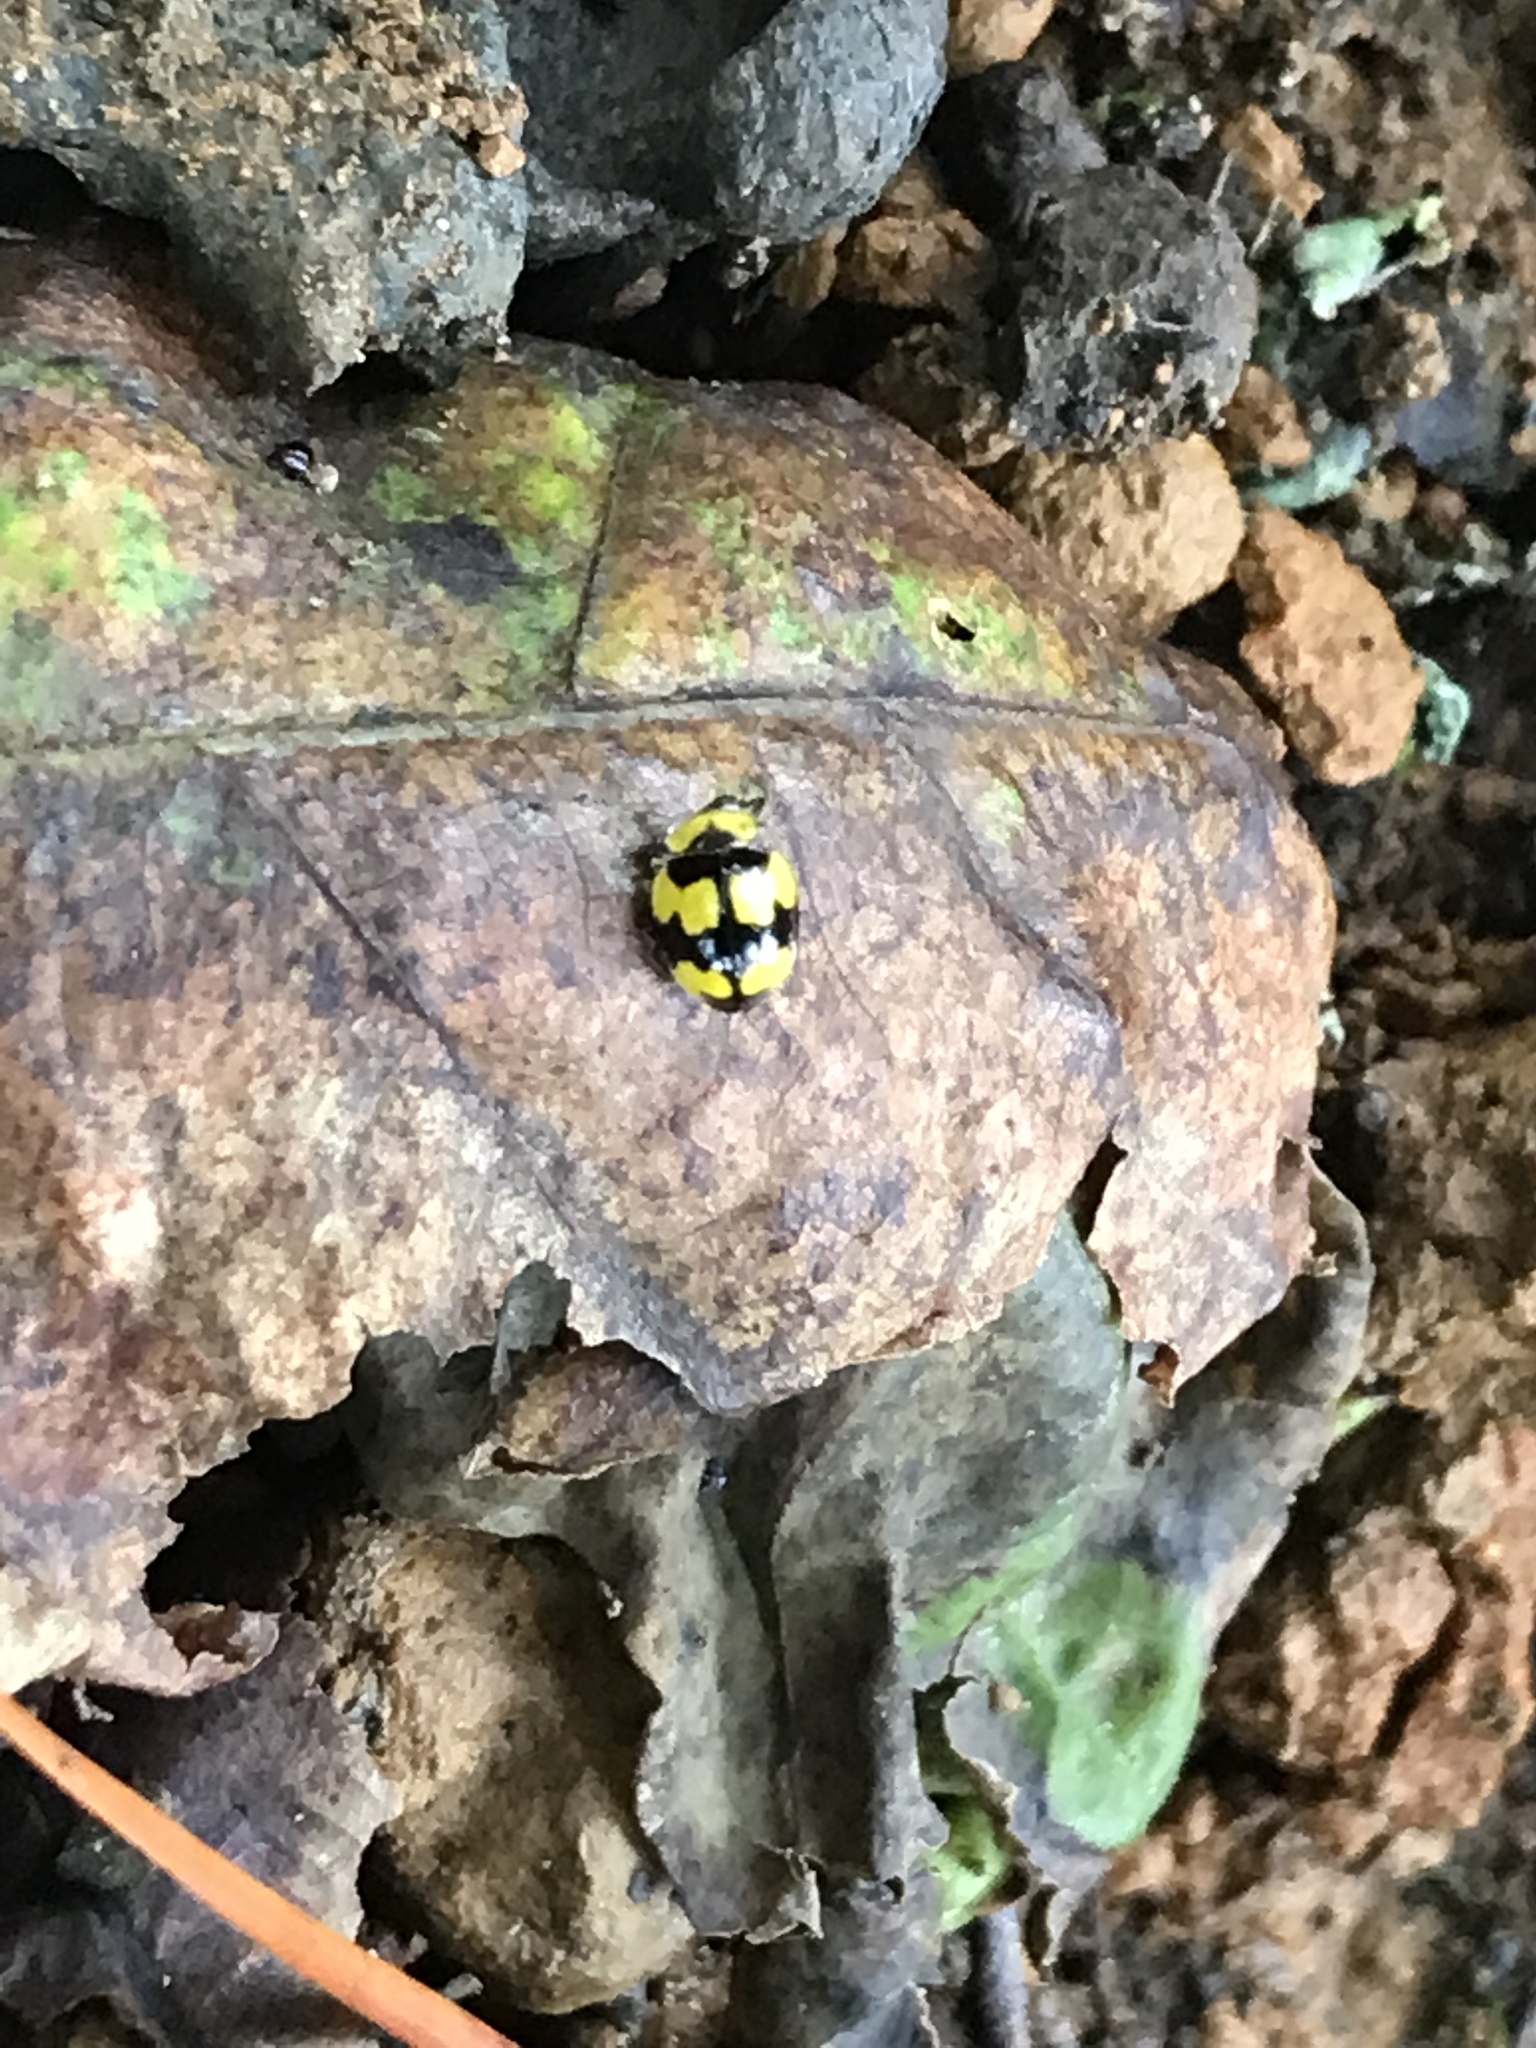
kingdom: Animalia
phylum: Arthropoda
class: Insecta
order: Coleoptera
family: Coccinellidae
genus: Illeis
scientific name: Illeis galbula
